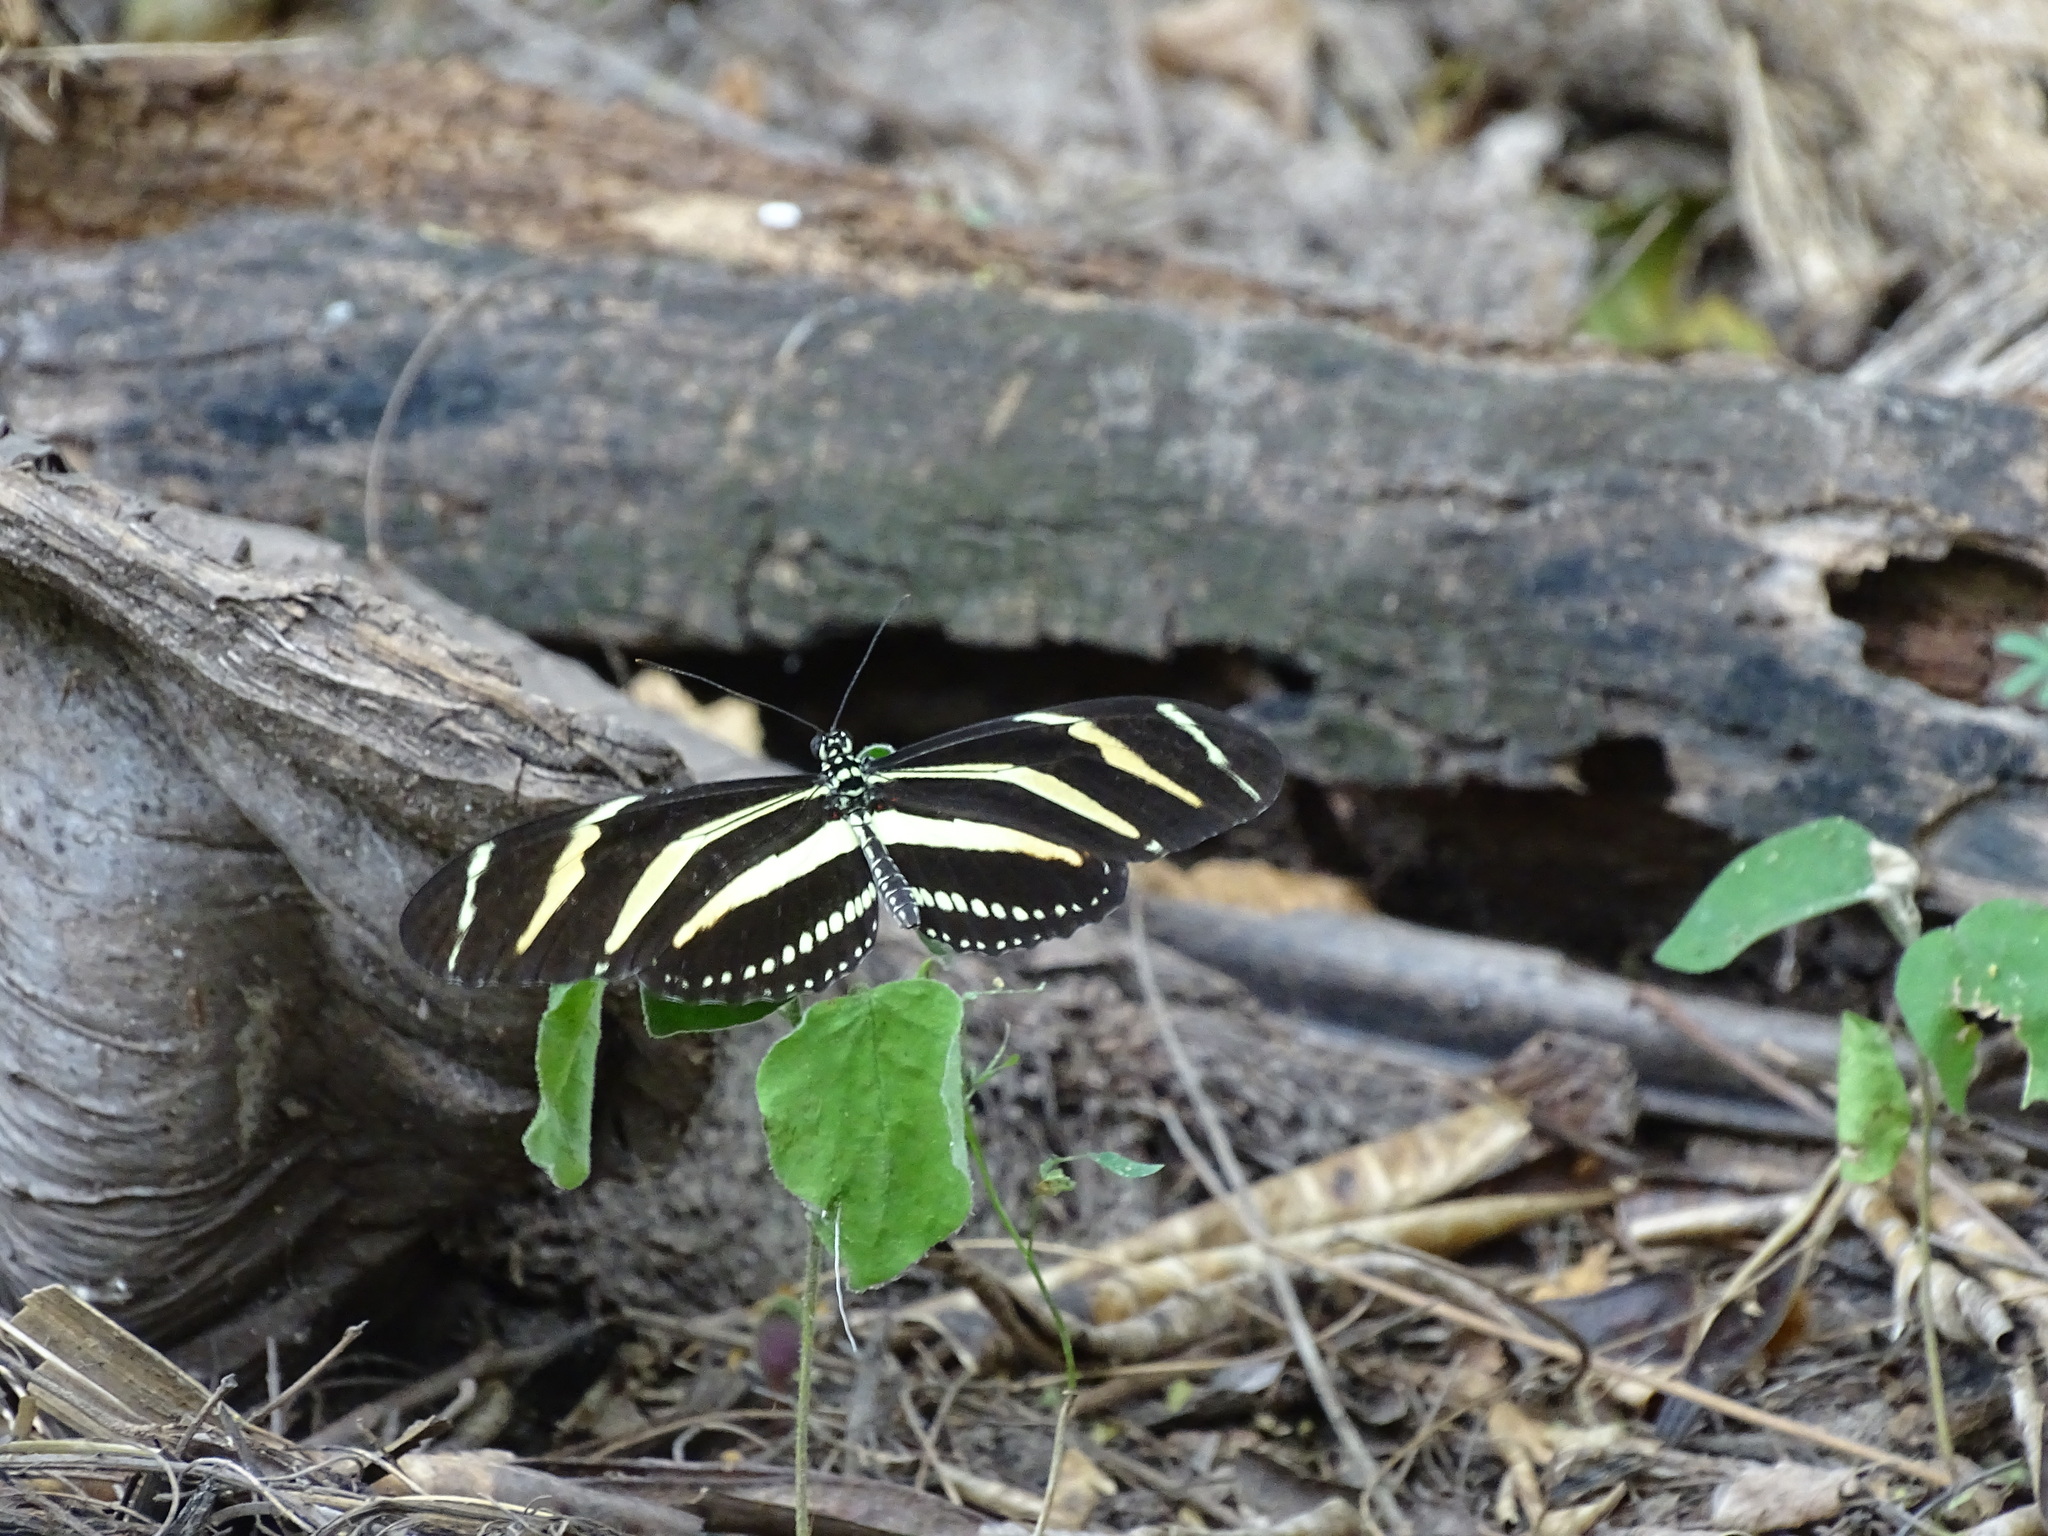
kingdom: Animalia
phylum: Arthropoda
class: Insecta
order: Lepidoptera
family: Nymphalidae
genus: Heliconius
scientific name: Heliconius charithonia
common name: Zebra long wing
